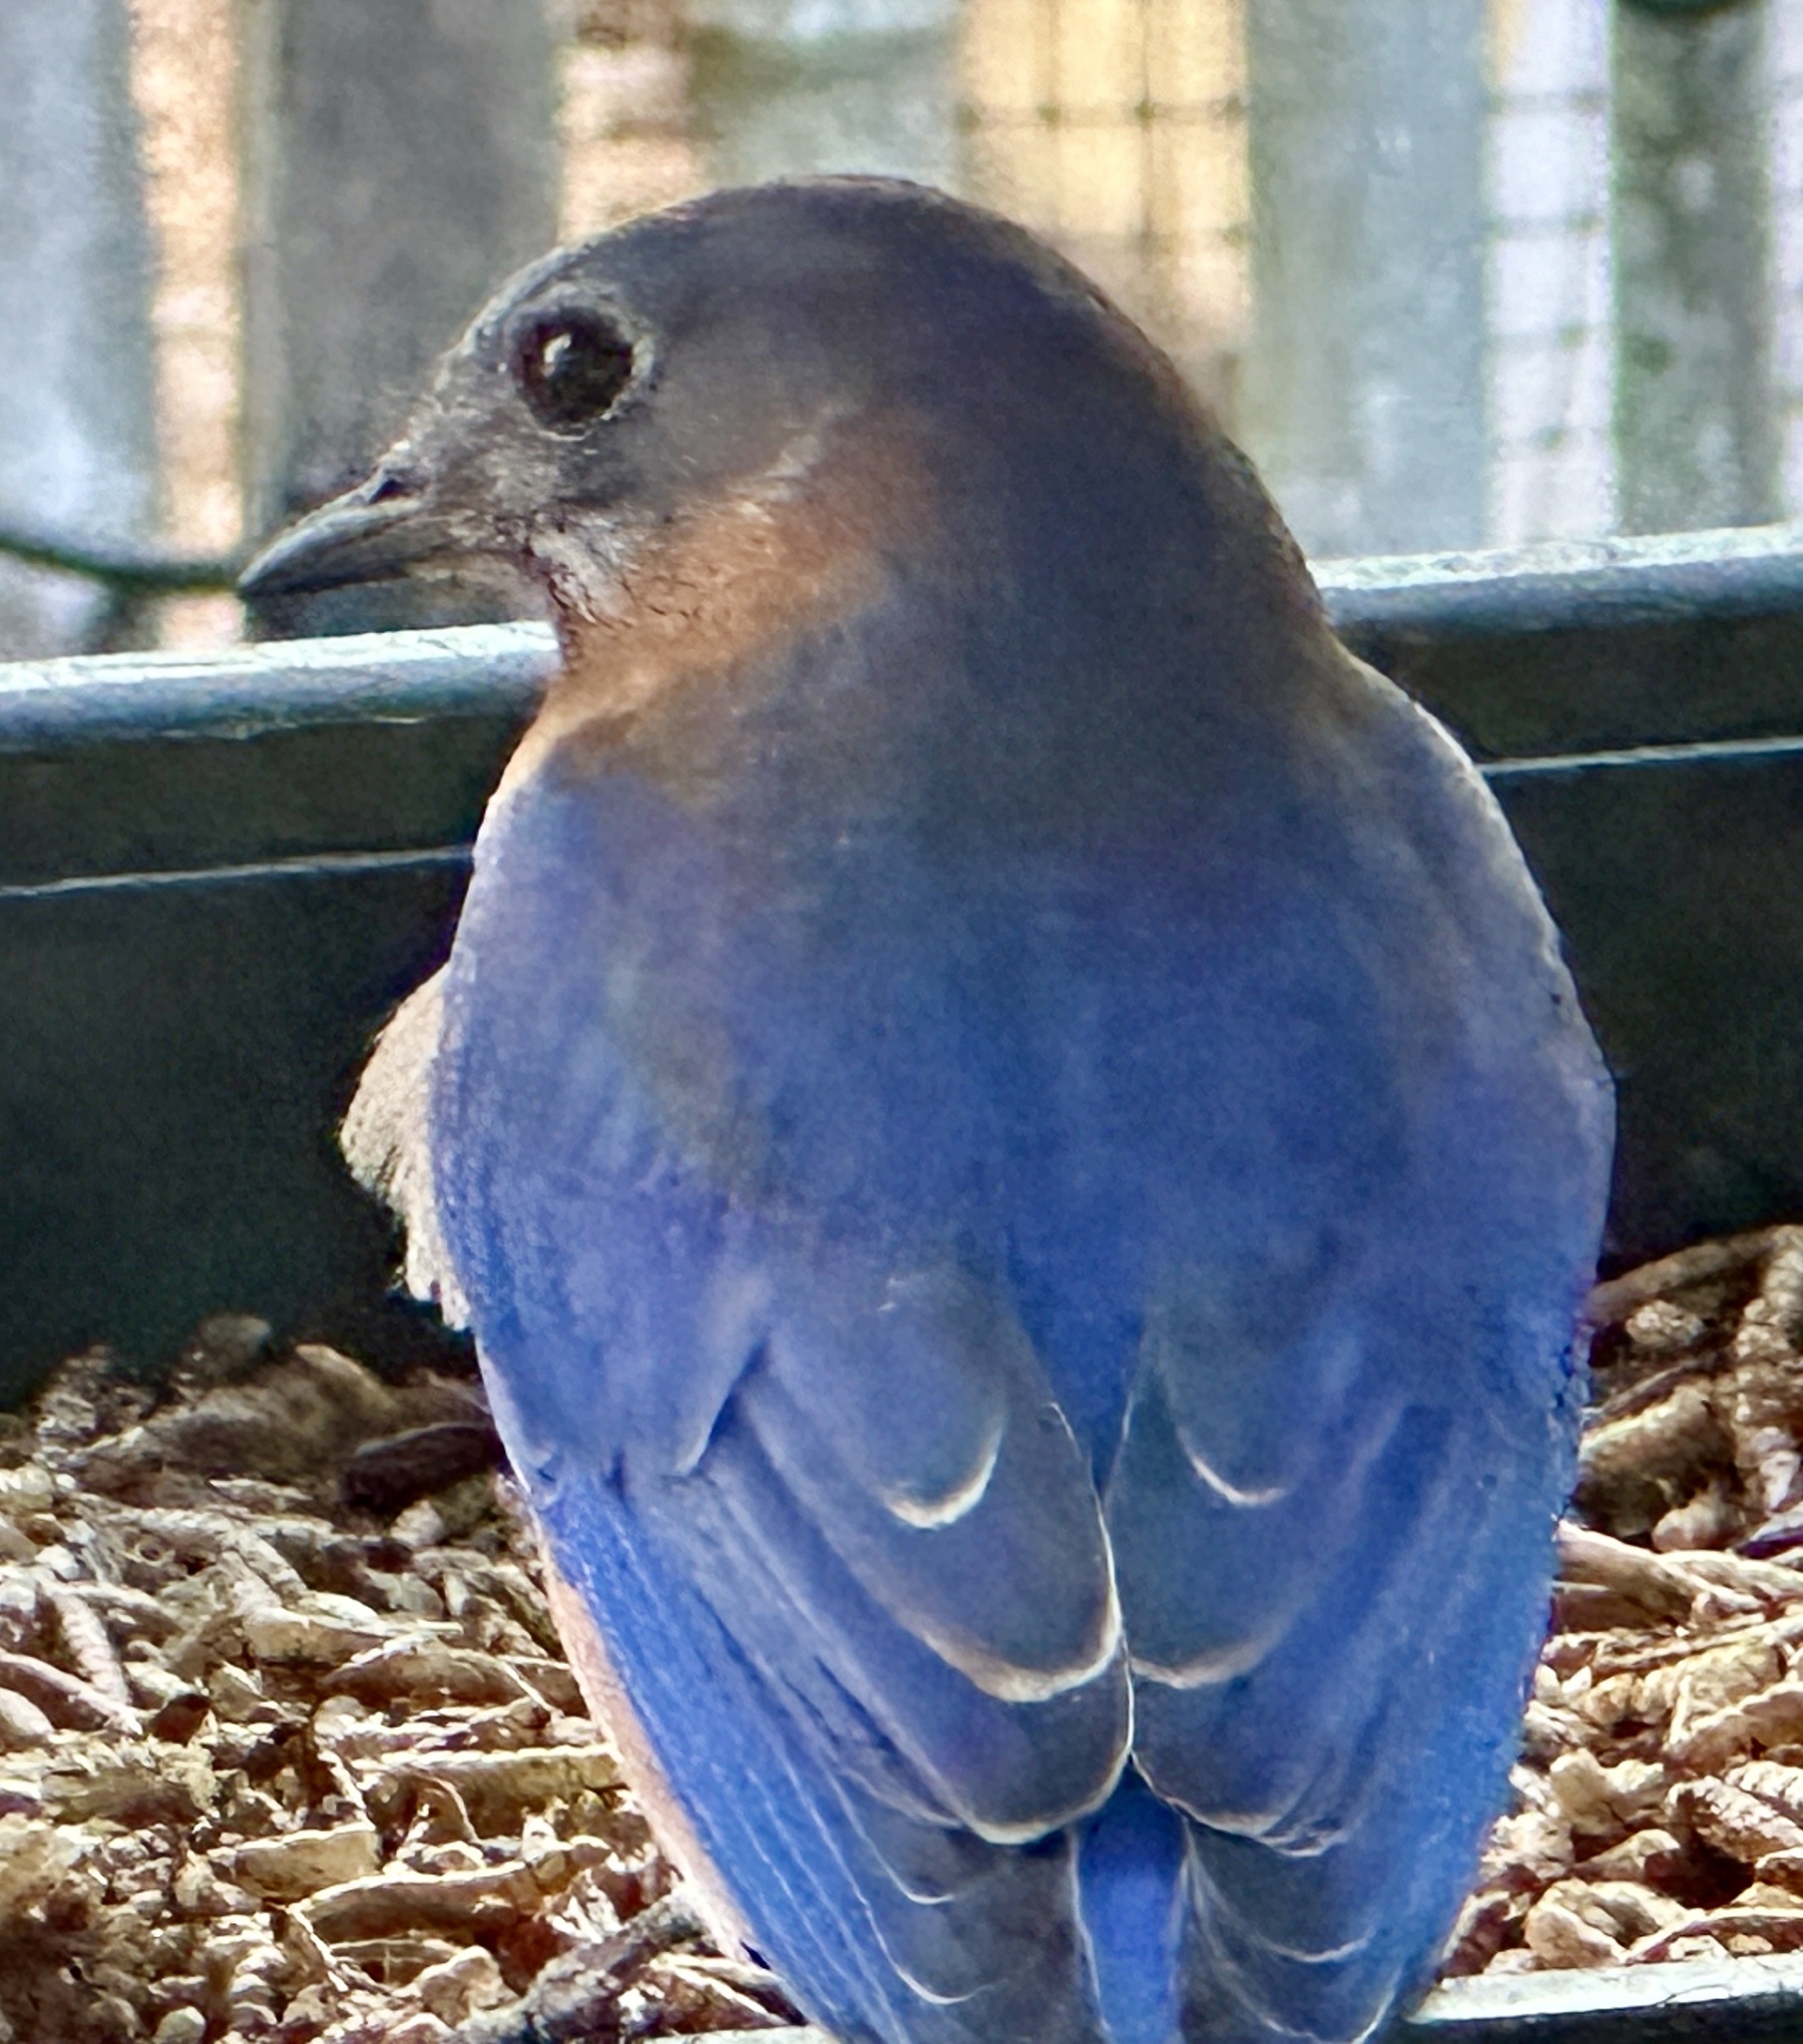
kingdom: Animalia
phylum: Chordata
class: Aves
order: Passeriformes
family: Turdidae
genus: Sialia
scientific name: Sialia sialis
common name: Eastern bluebird
